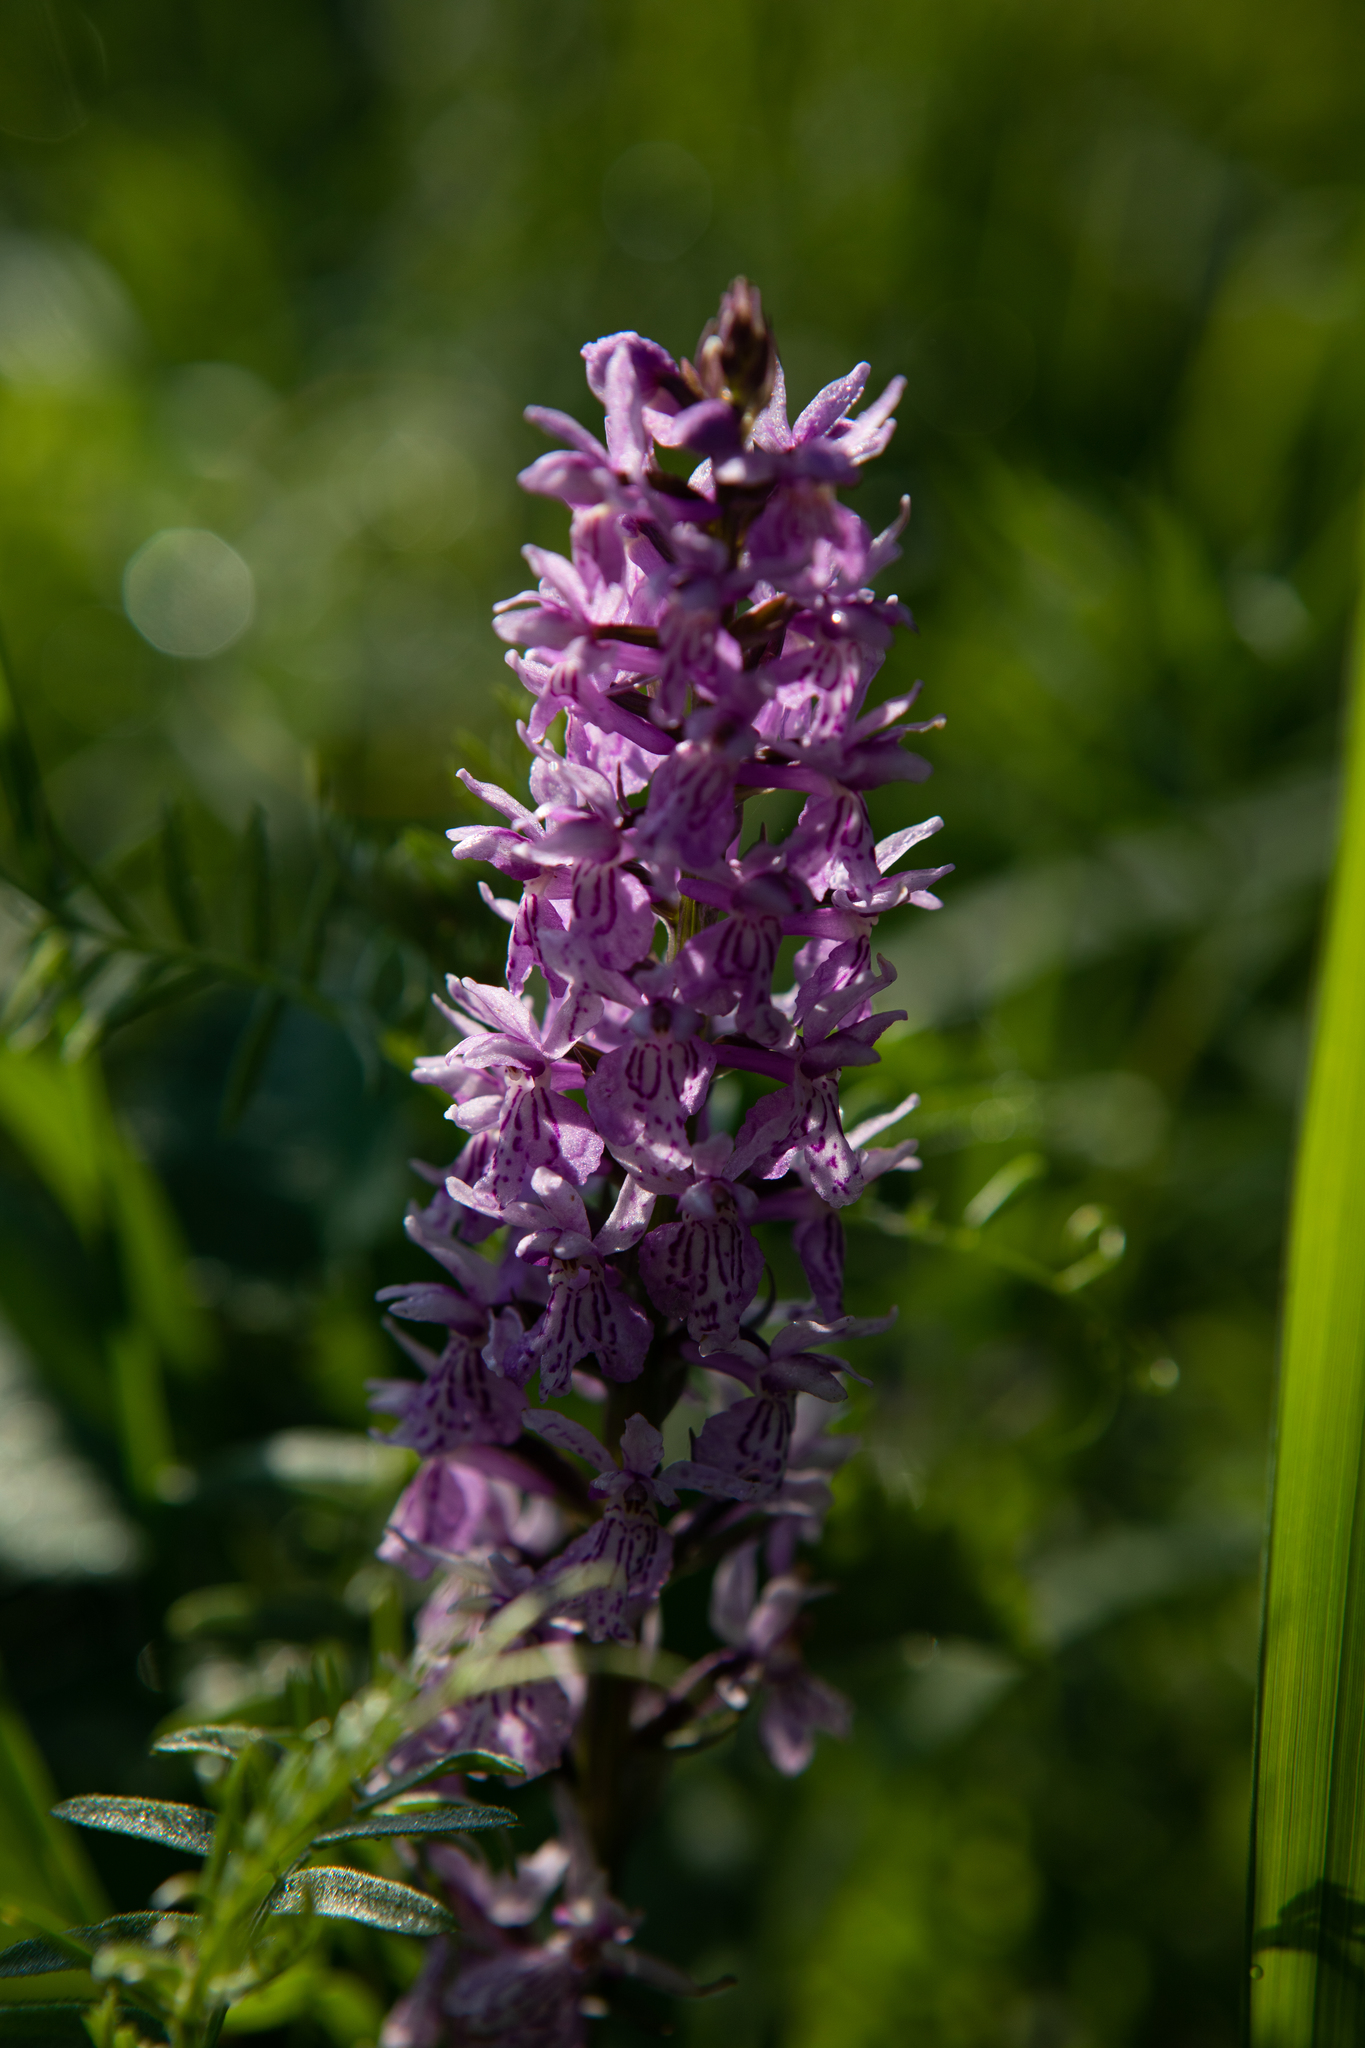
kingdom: Plantae
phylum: Tracheophyta
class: Liliopsida
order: Asparagales
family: Orchidaceae
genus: Dactylorhiza
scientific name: Dactylorhiza maculata
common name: Heath spotted-orchid
